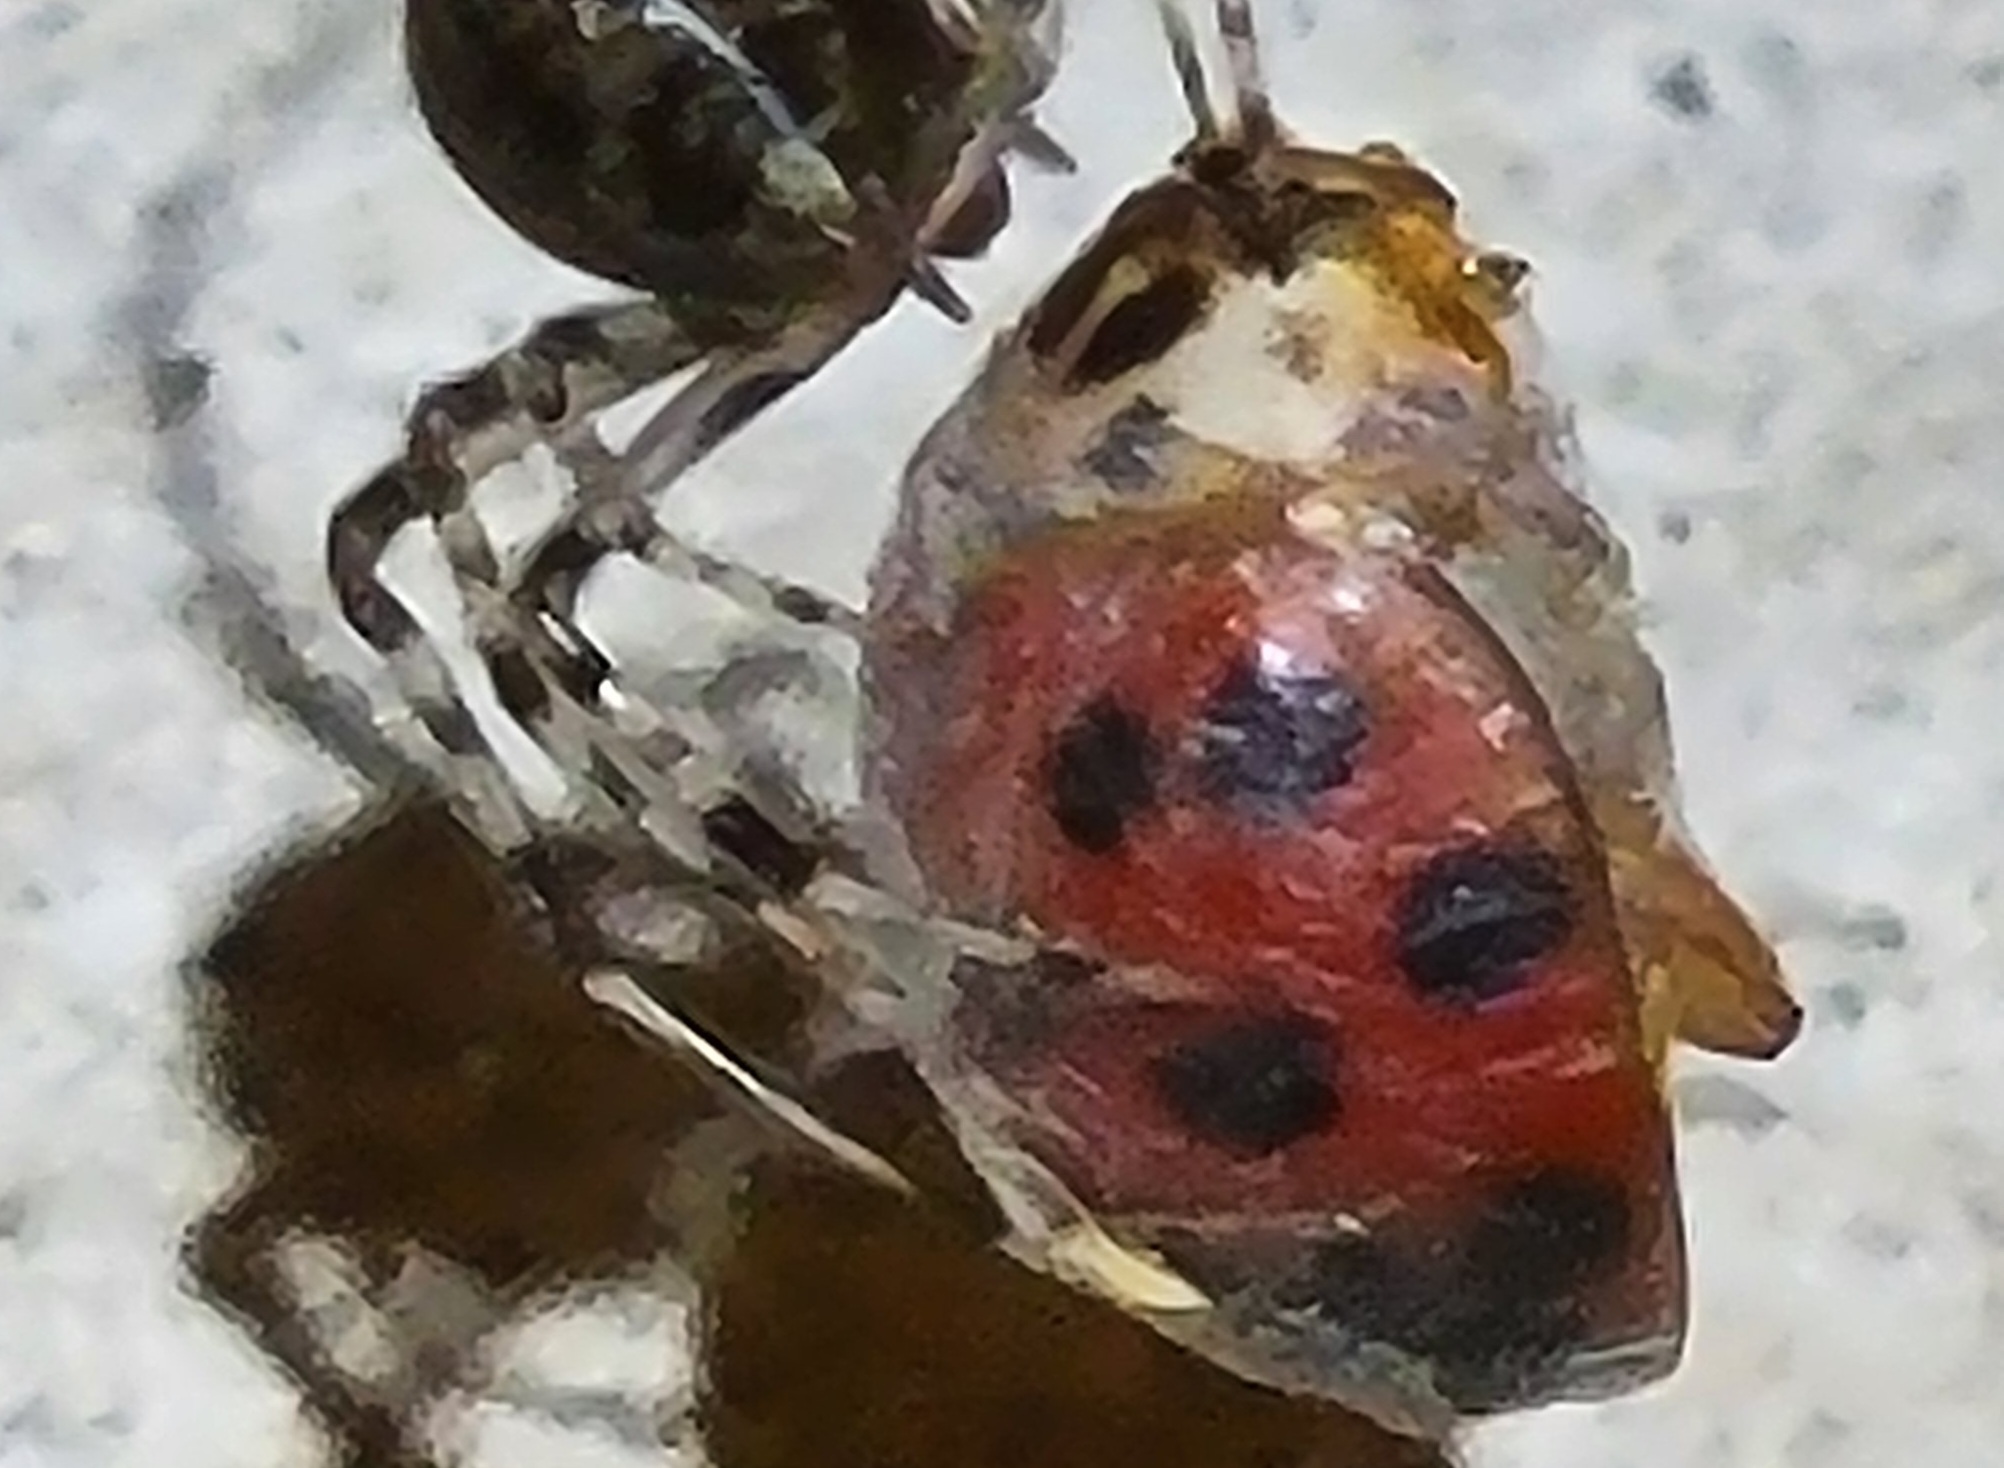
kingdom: Animalia
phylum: Arthropoda
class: Insecta
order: Coleoptera
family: Coccinellidae
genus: Harmonia
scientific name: Harmonia axyridis
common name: Harlequin ladybird
